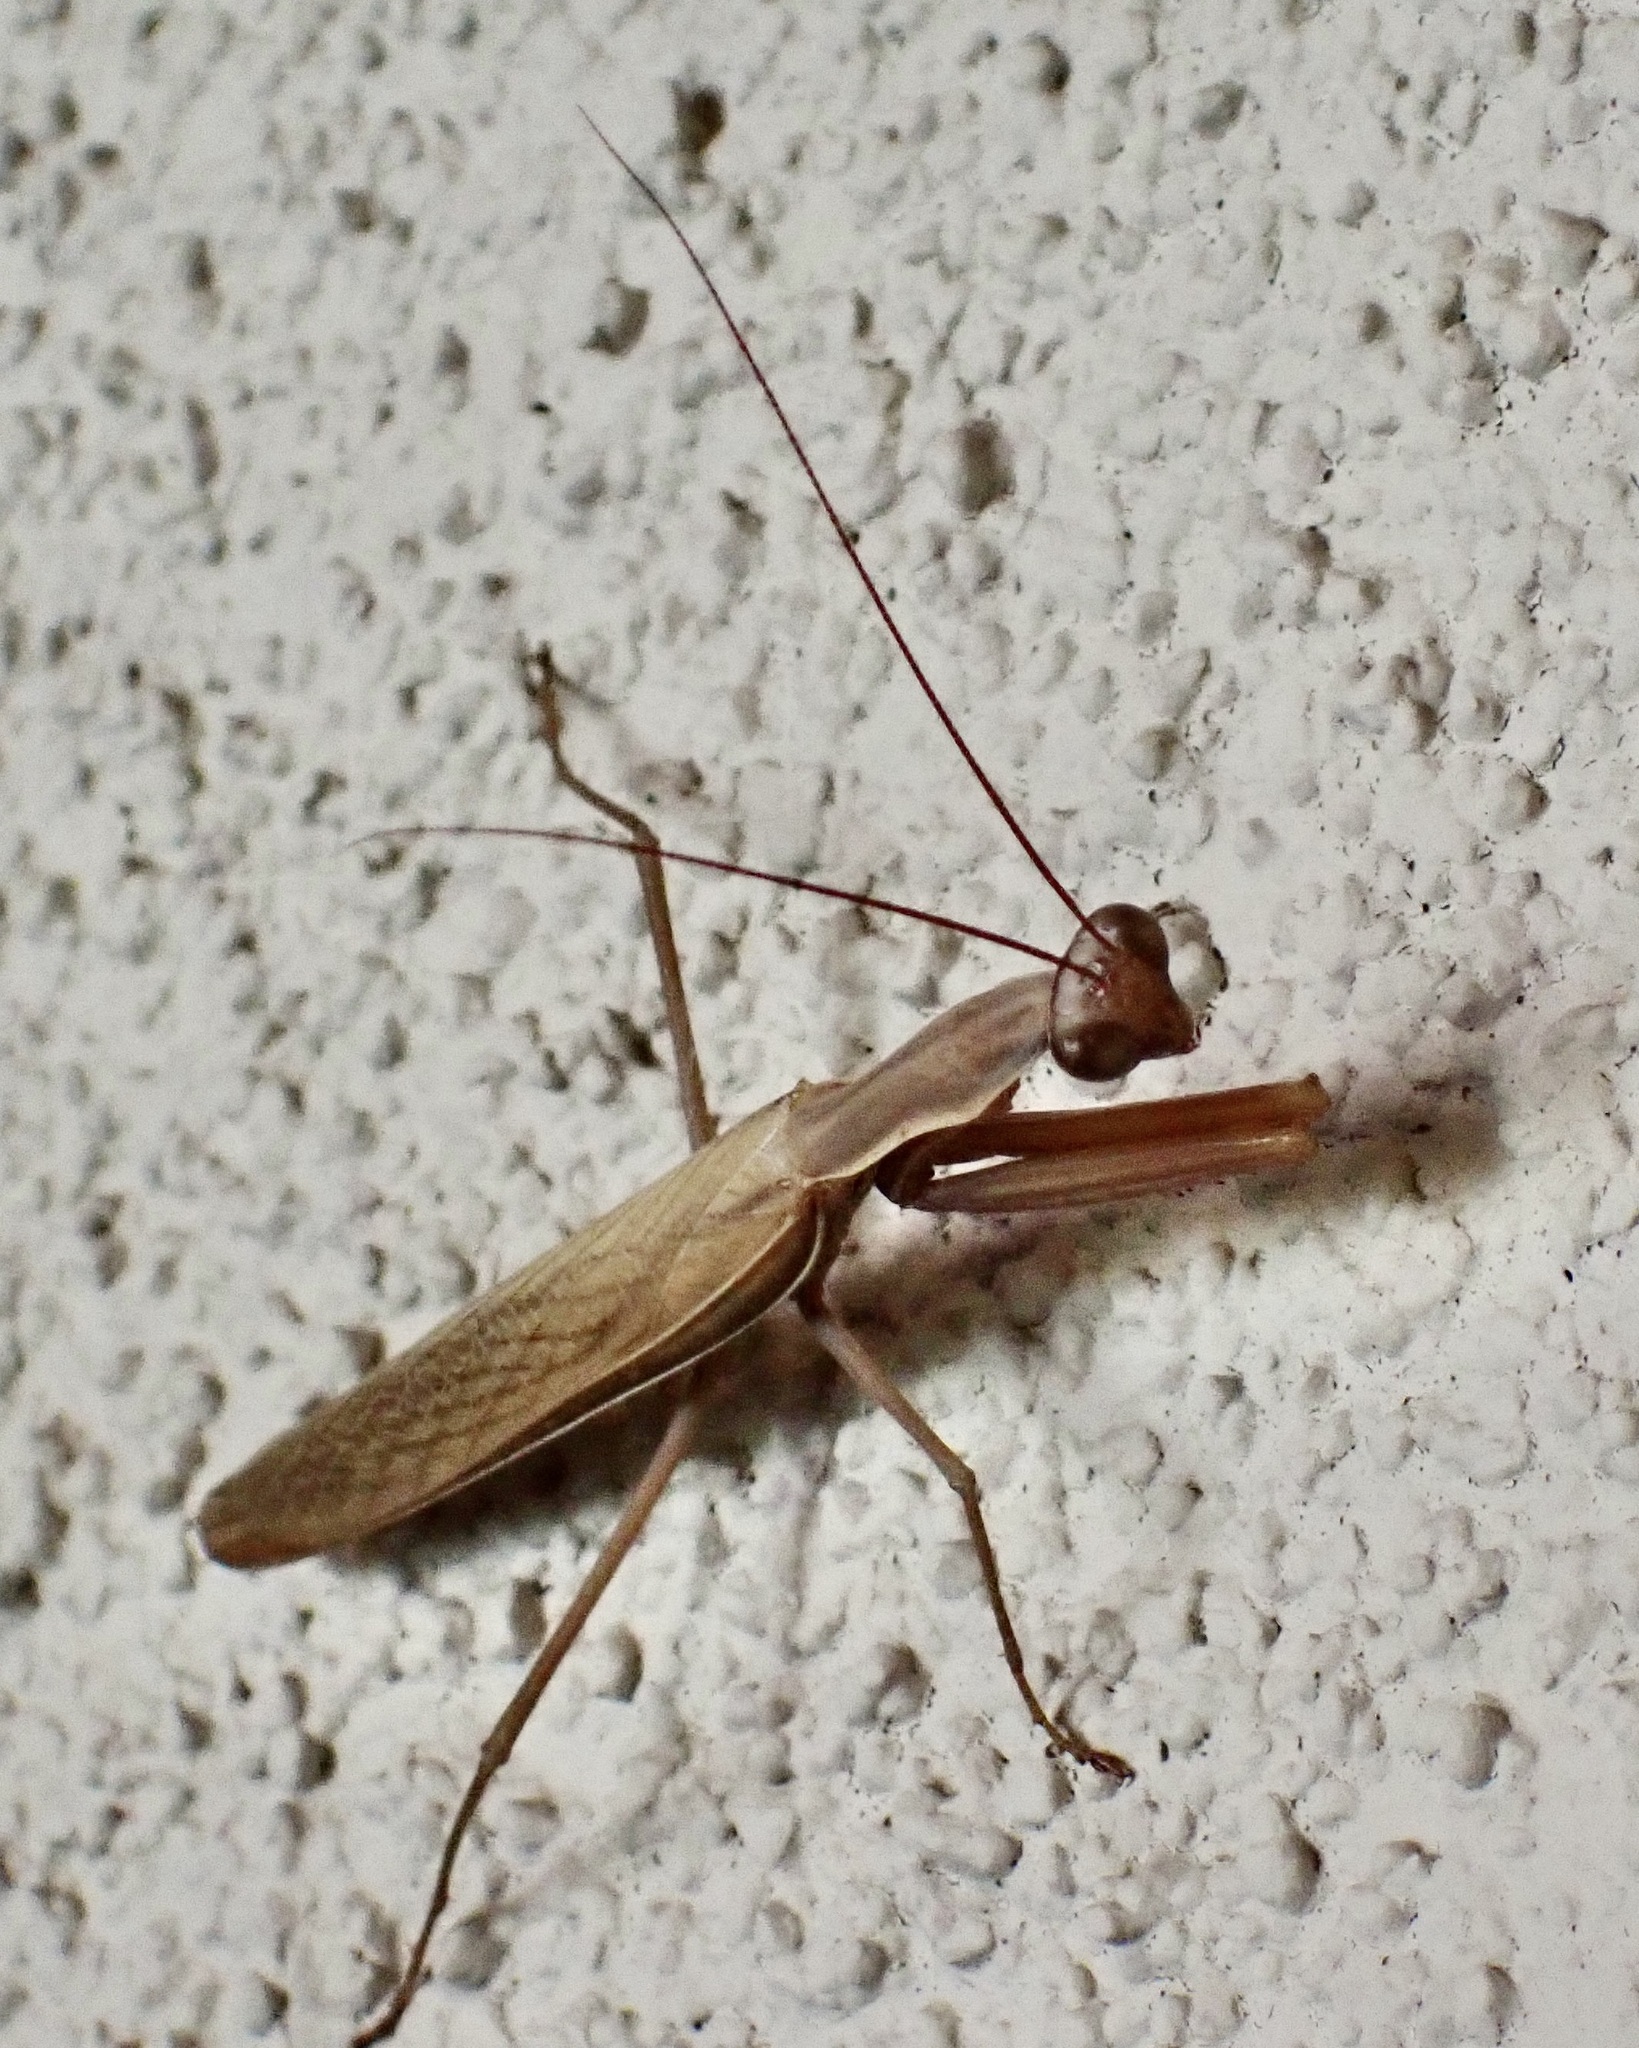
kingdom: Animalia
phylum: Arthropoda
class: Insecta
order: Mantodea
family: Mantidae
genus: Mantis
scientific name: Mantis religiosa
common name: Praying mantis
